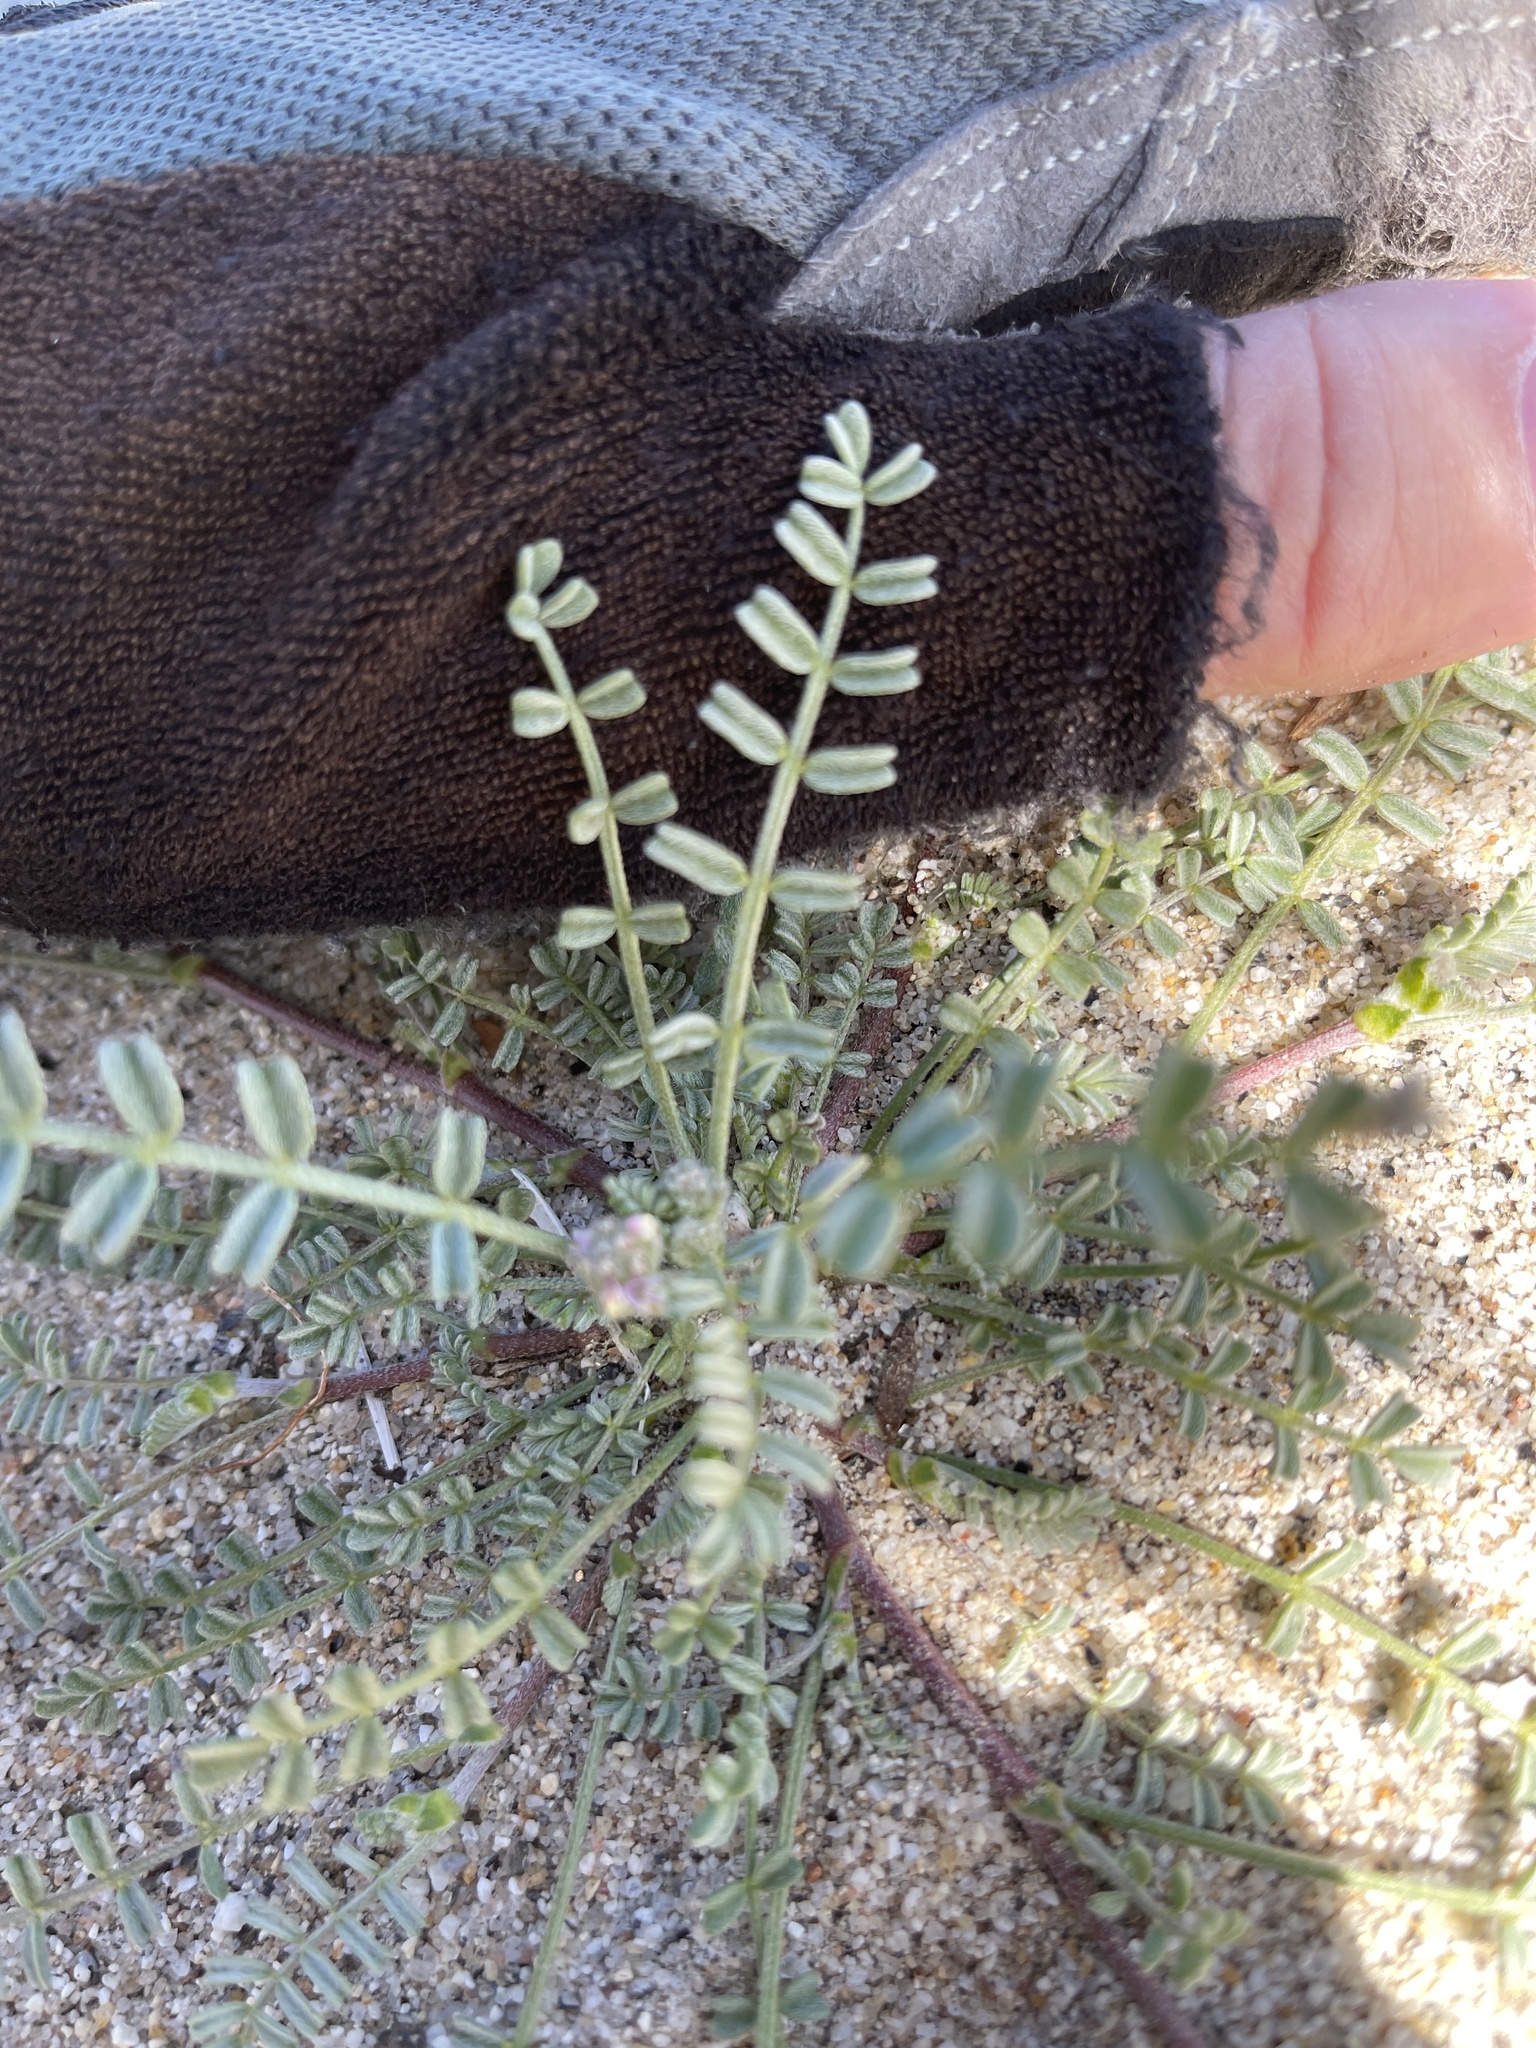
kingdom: Plantae
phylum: Tracheophyta
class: Magnoliopsida
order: Fabales
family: Fabaceae
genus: Astragalus
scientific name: Astragalus didymocarpus
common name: Dwarf white milkvetch
